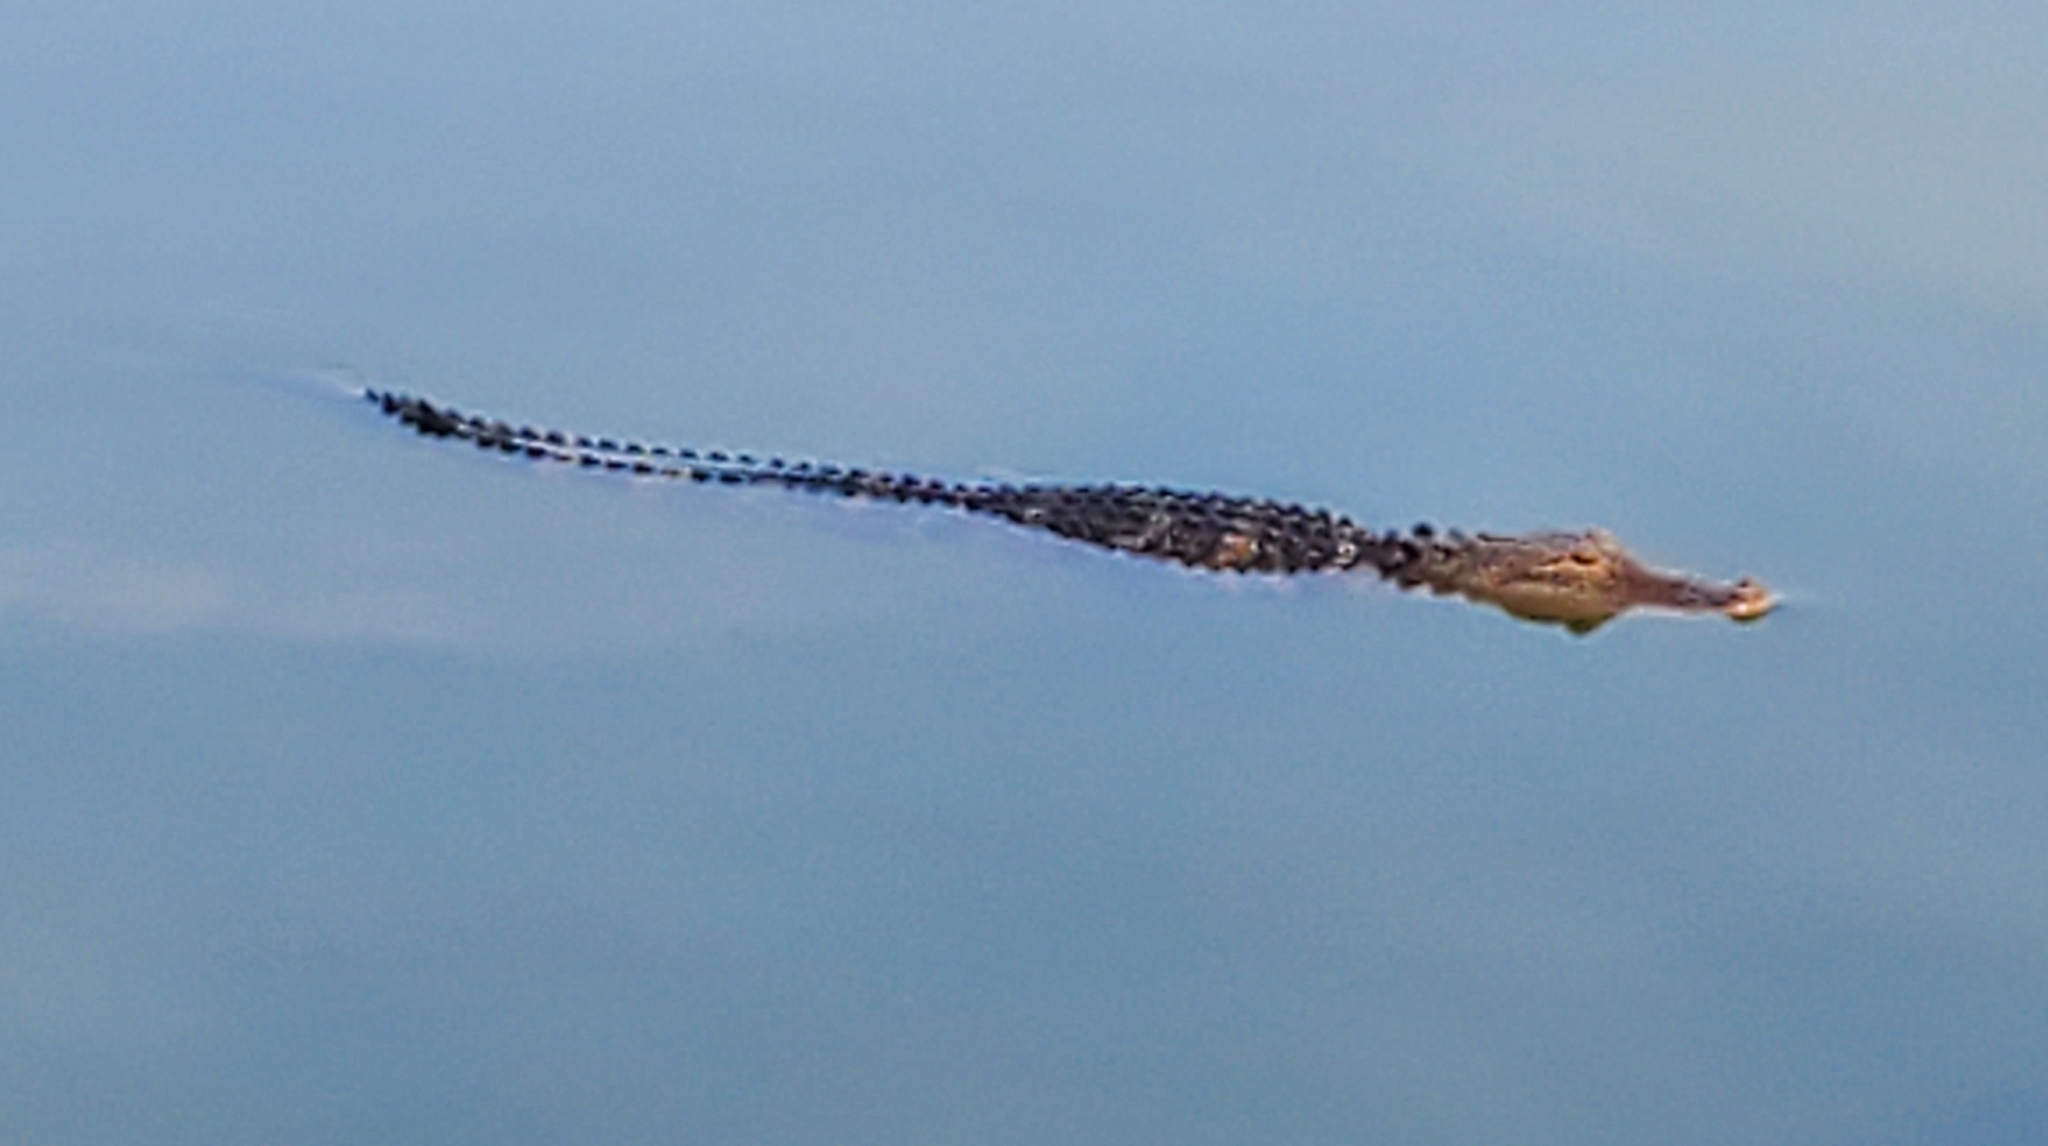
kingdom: Animalia
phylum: Chordata
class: Crocodylia
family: Alligatoridae
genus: Alligator
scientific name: Alligator mississippiensis
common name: American alligator
